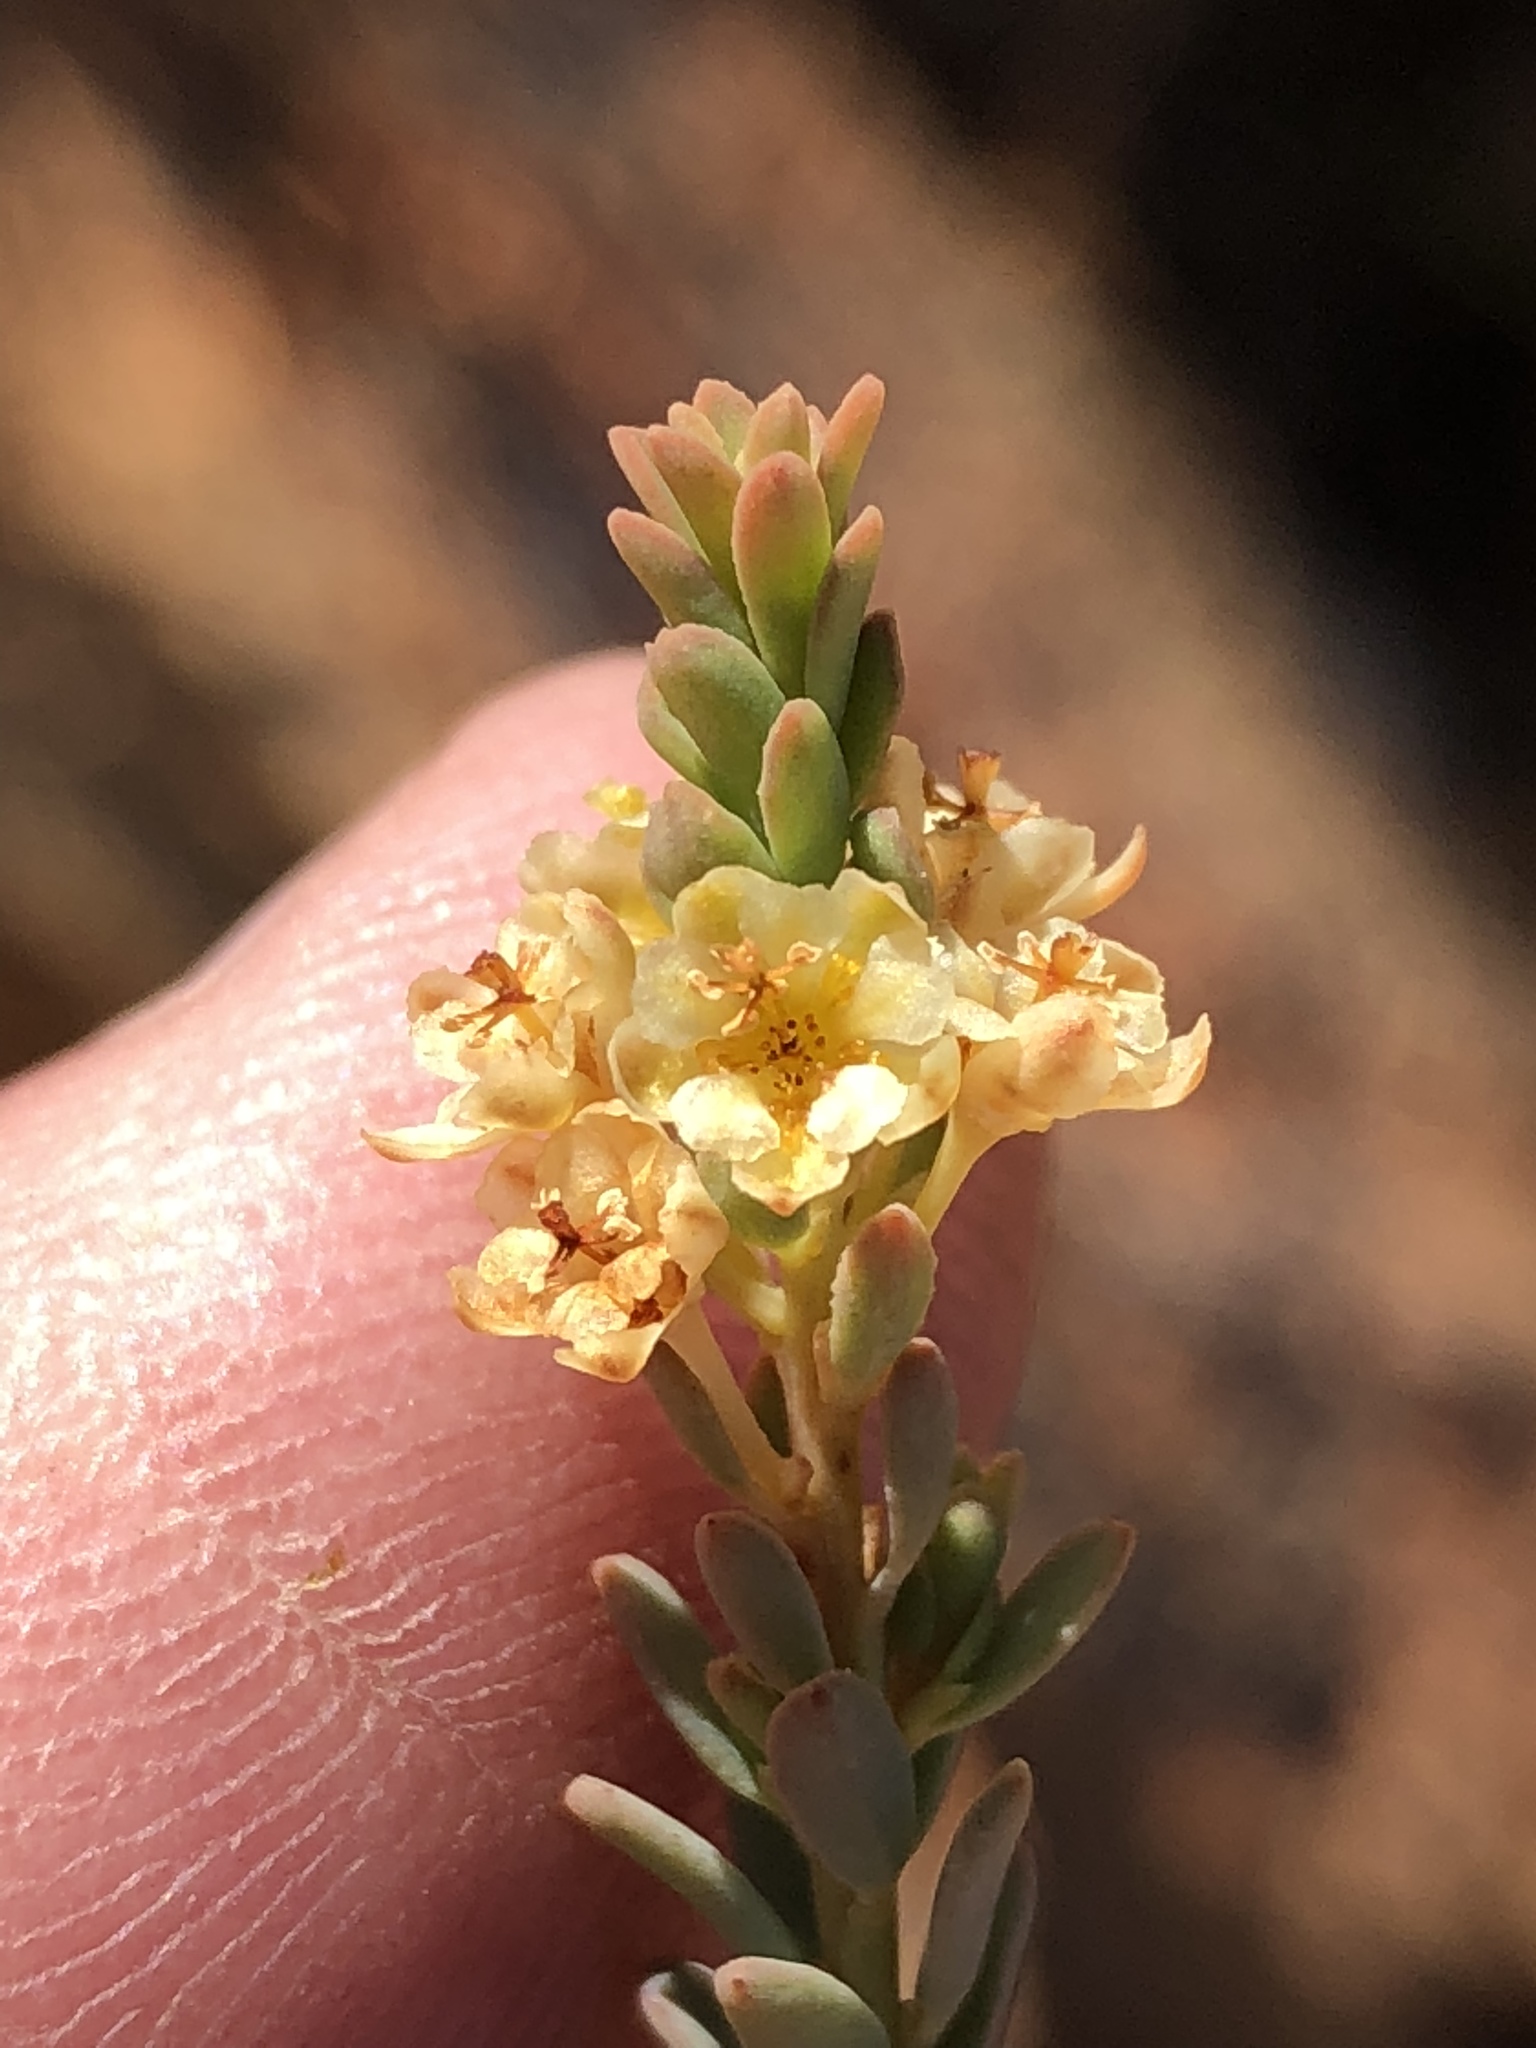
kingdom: Plantae
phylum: Tracheophyta
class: Magnoliopsida
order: Malpighiales
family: Peraceae
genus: Clutia
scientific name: Clutia laxa
